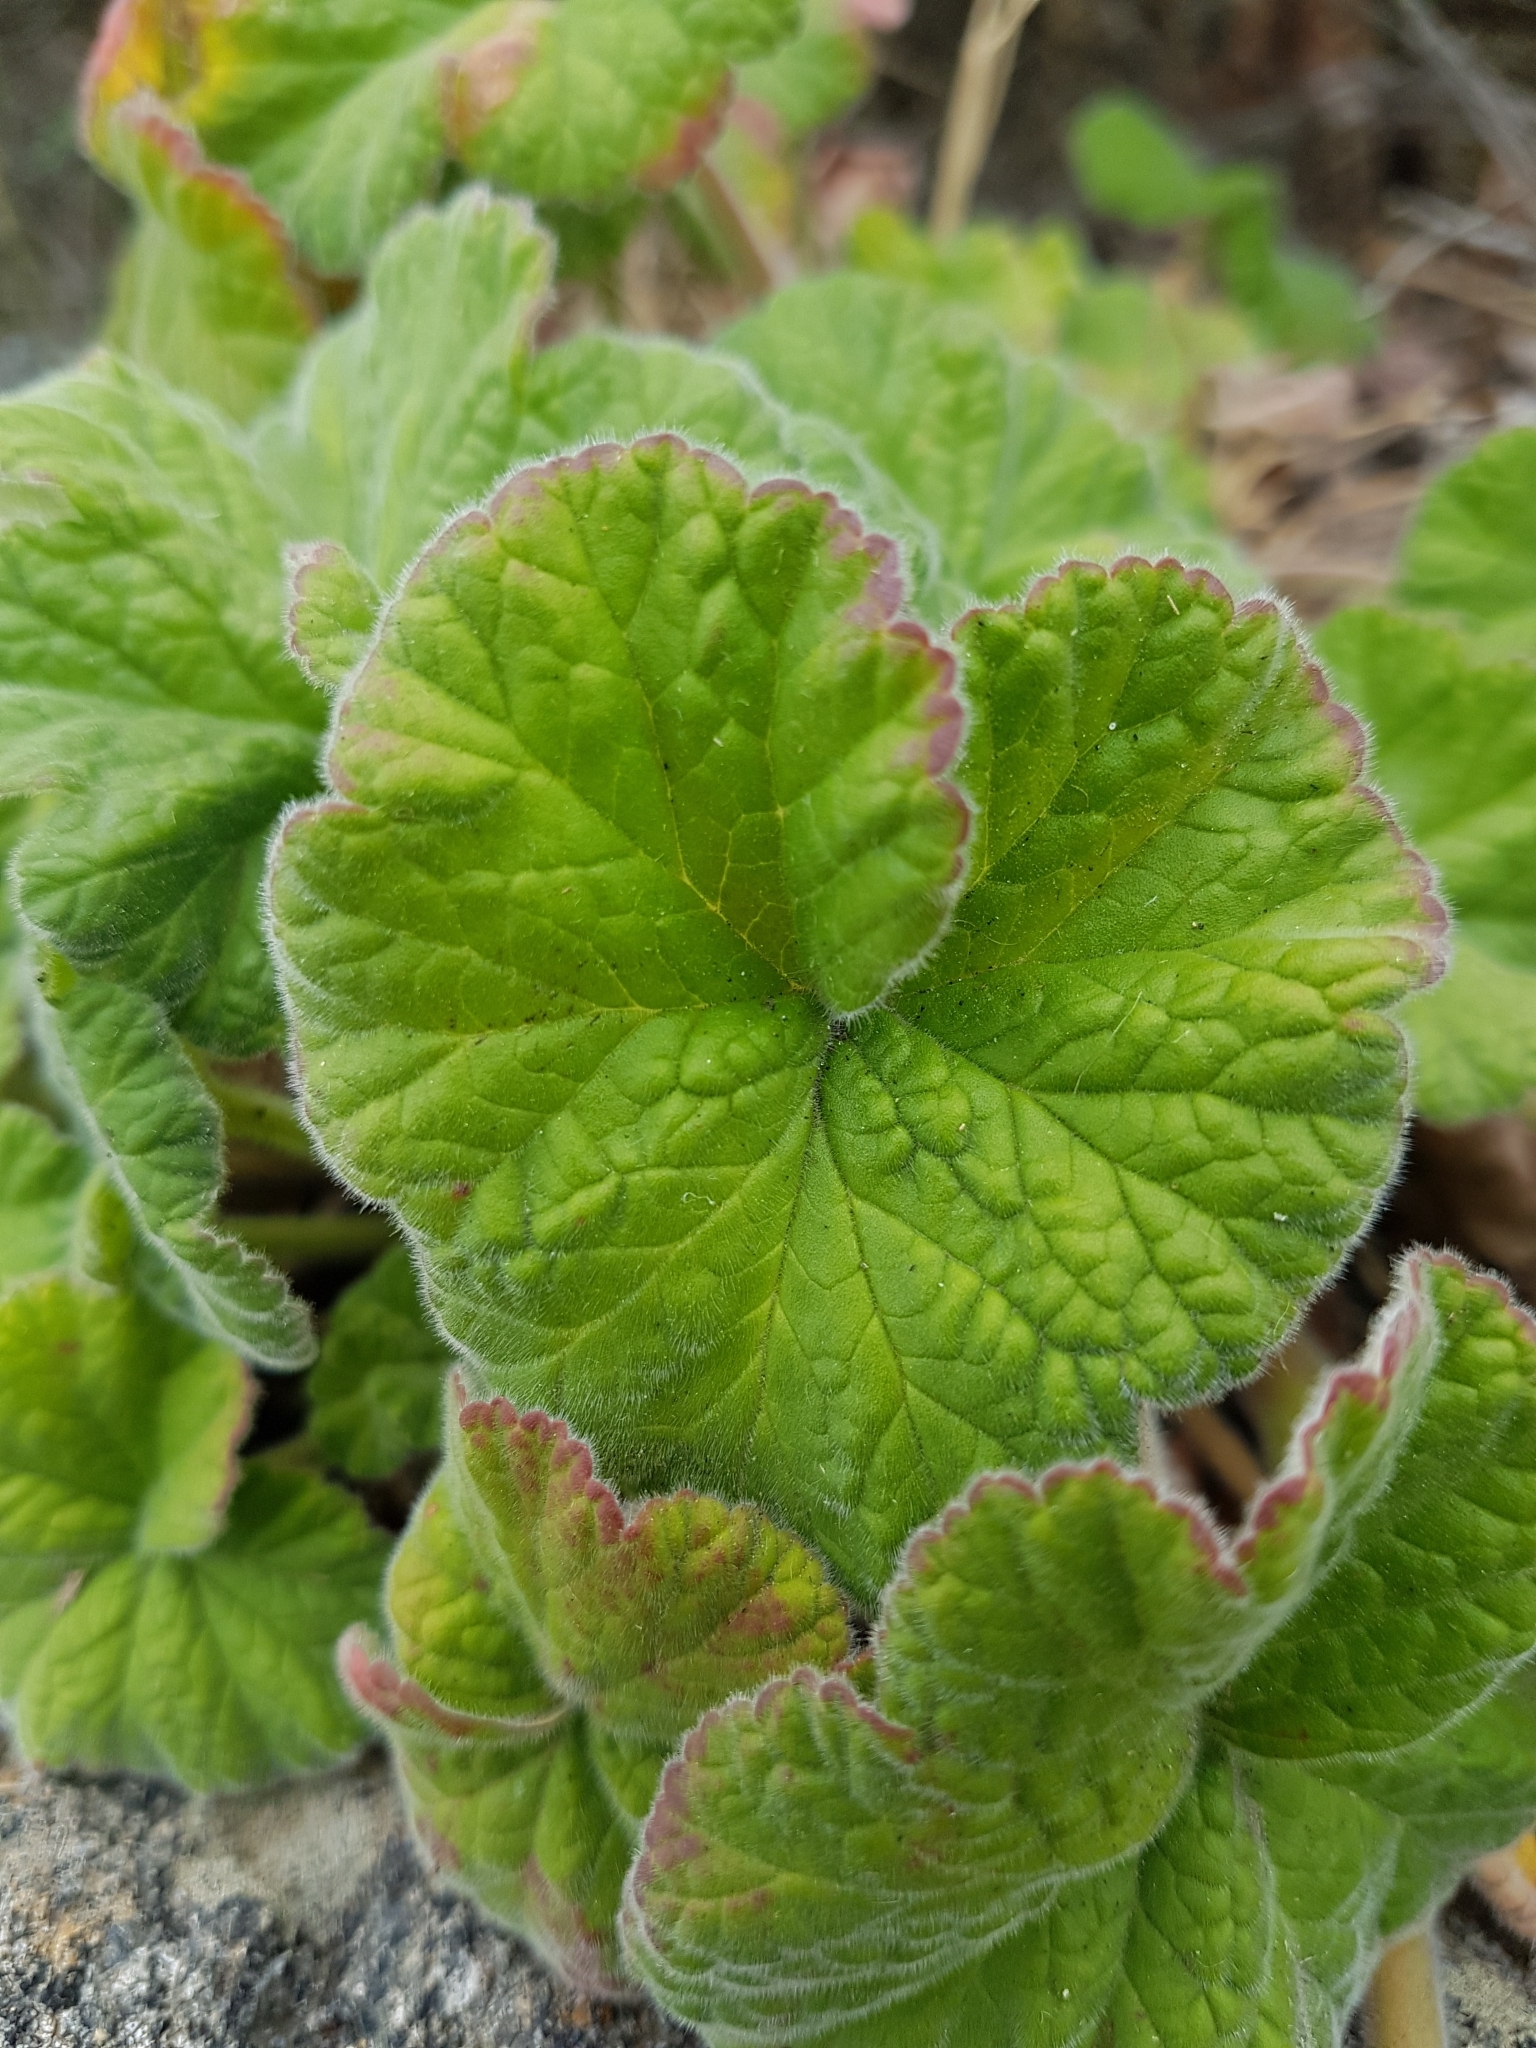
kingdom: Plantae
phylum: Tracheophyta
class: Magnoliopsida
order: Geraniales
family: Geraniaceae
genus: Pelargonium
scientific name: Pelargonium australe
